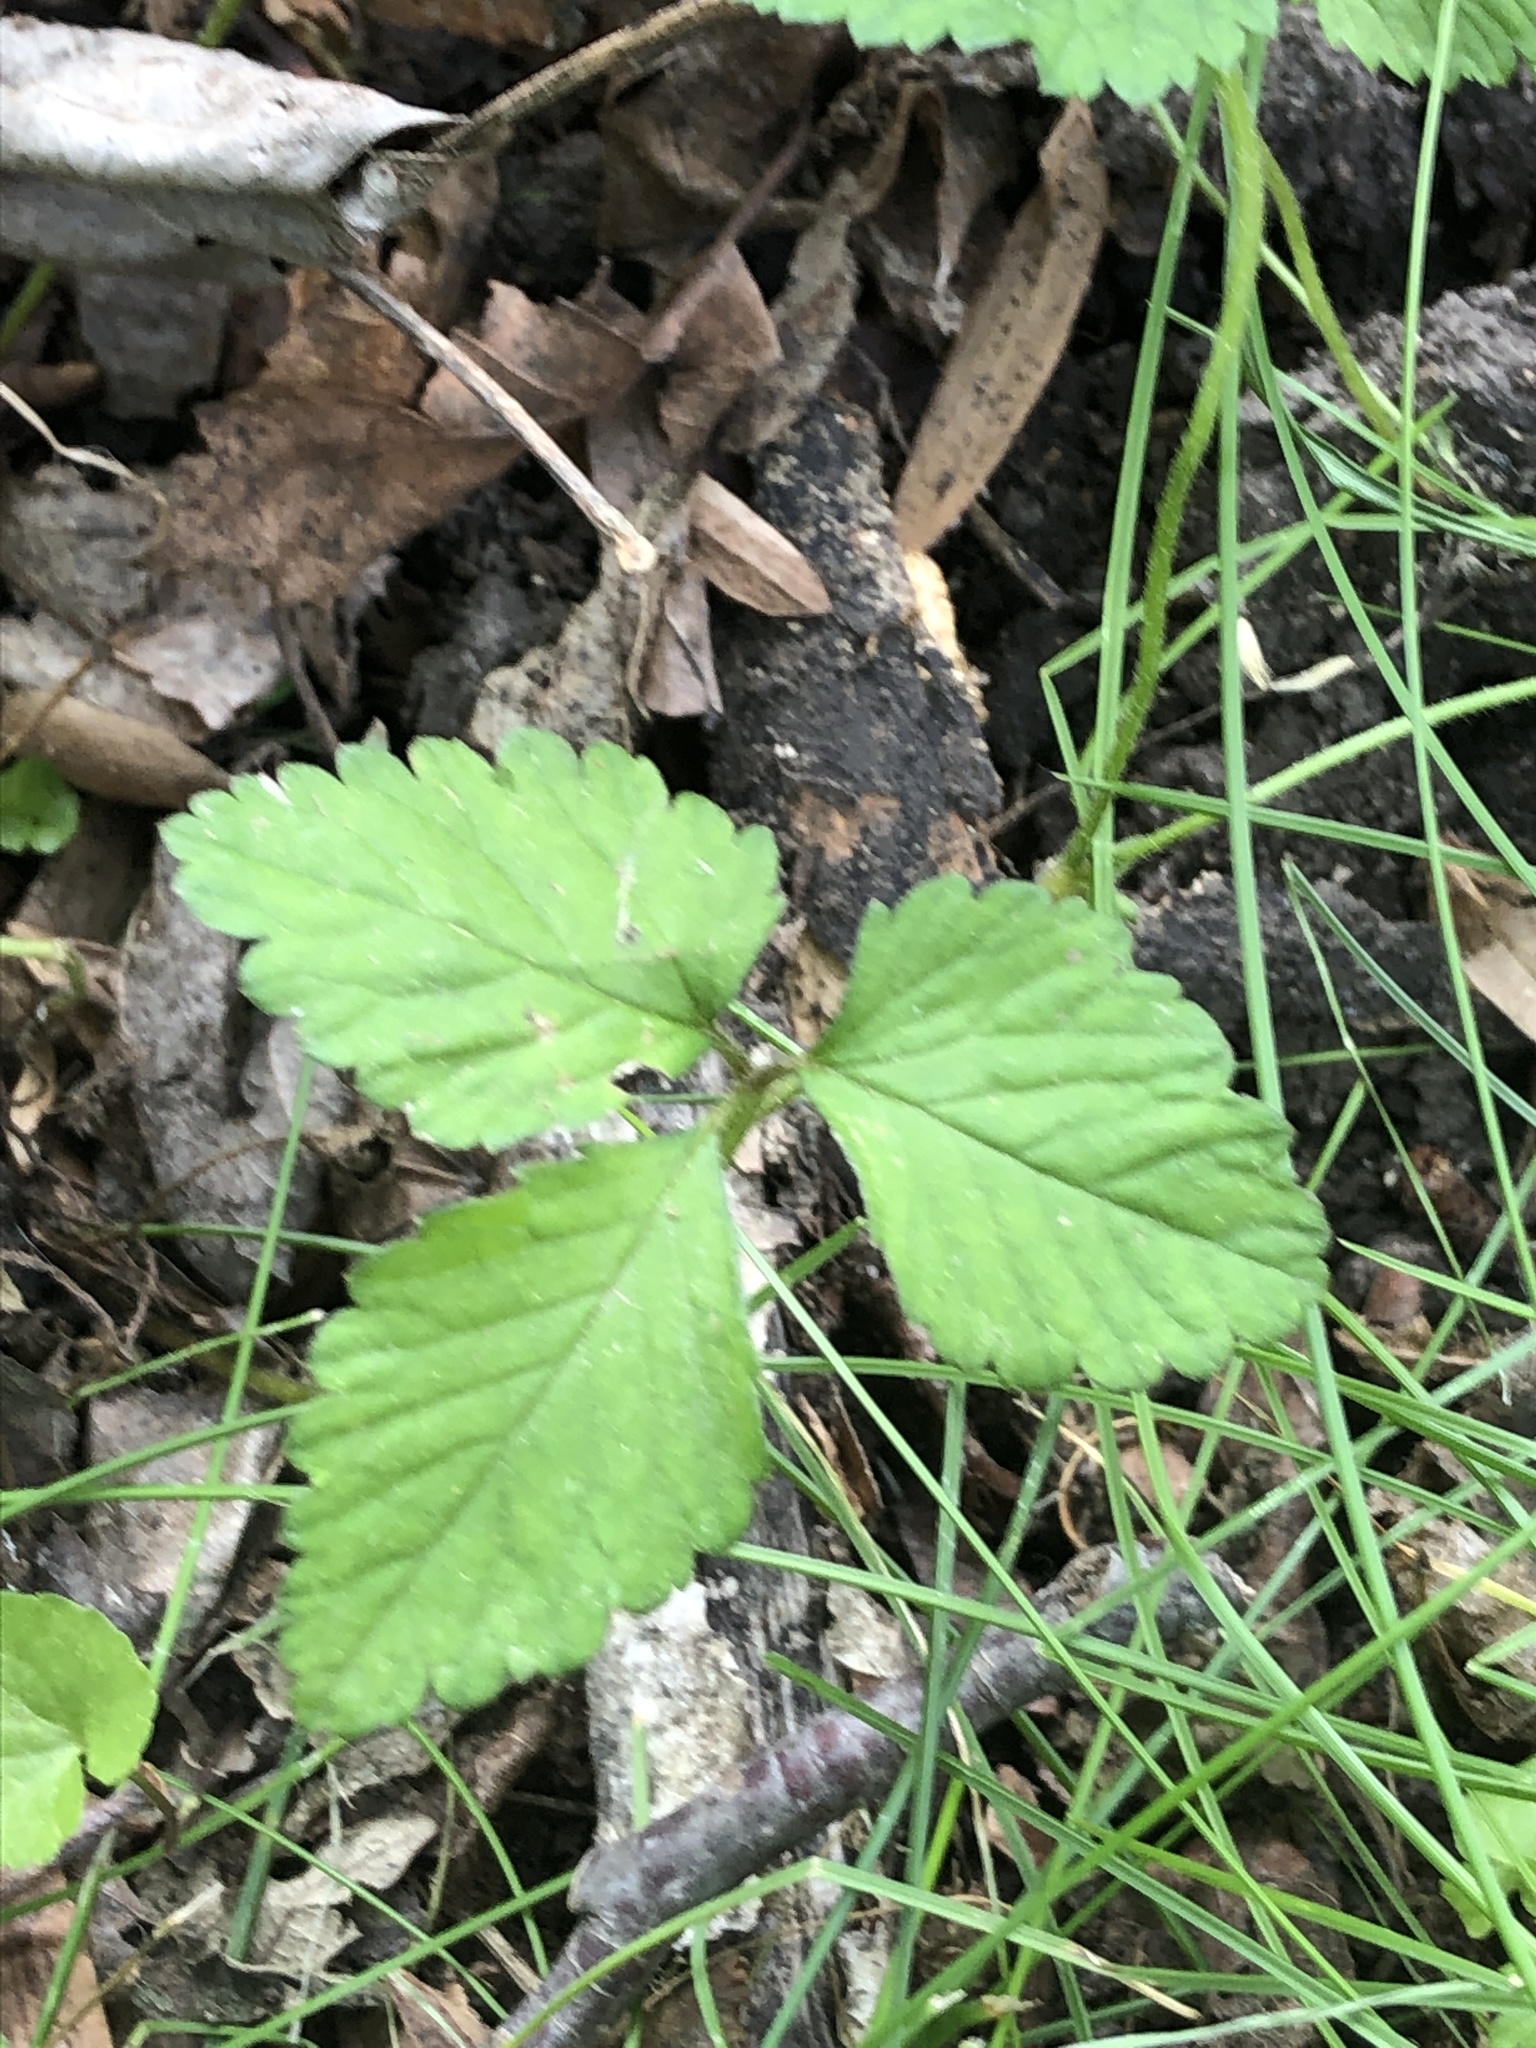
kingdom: Plantae
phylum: Tracheophyta
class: Magnoliopsida
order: Rosales
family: Rosaceae
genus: Potentilla
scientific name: Potentilla indica
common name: Yellow-flowered strawberry
